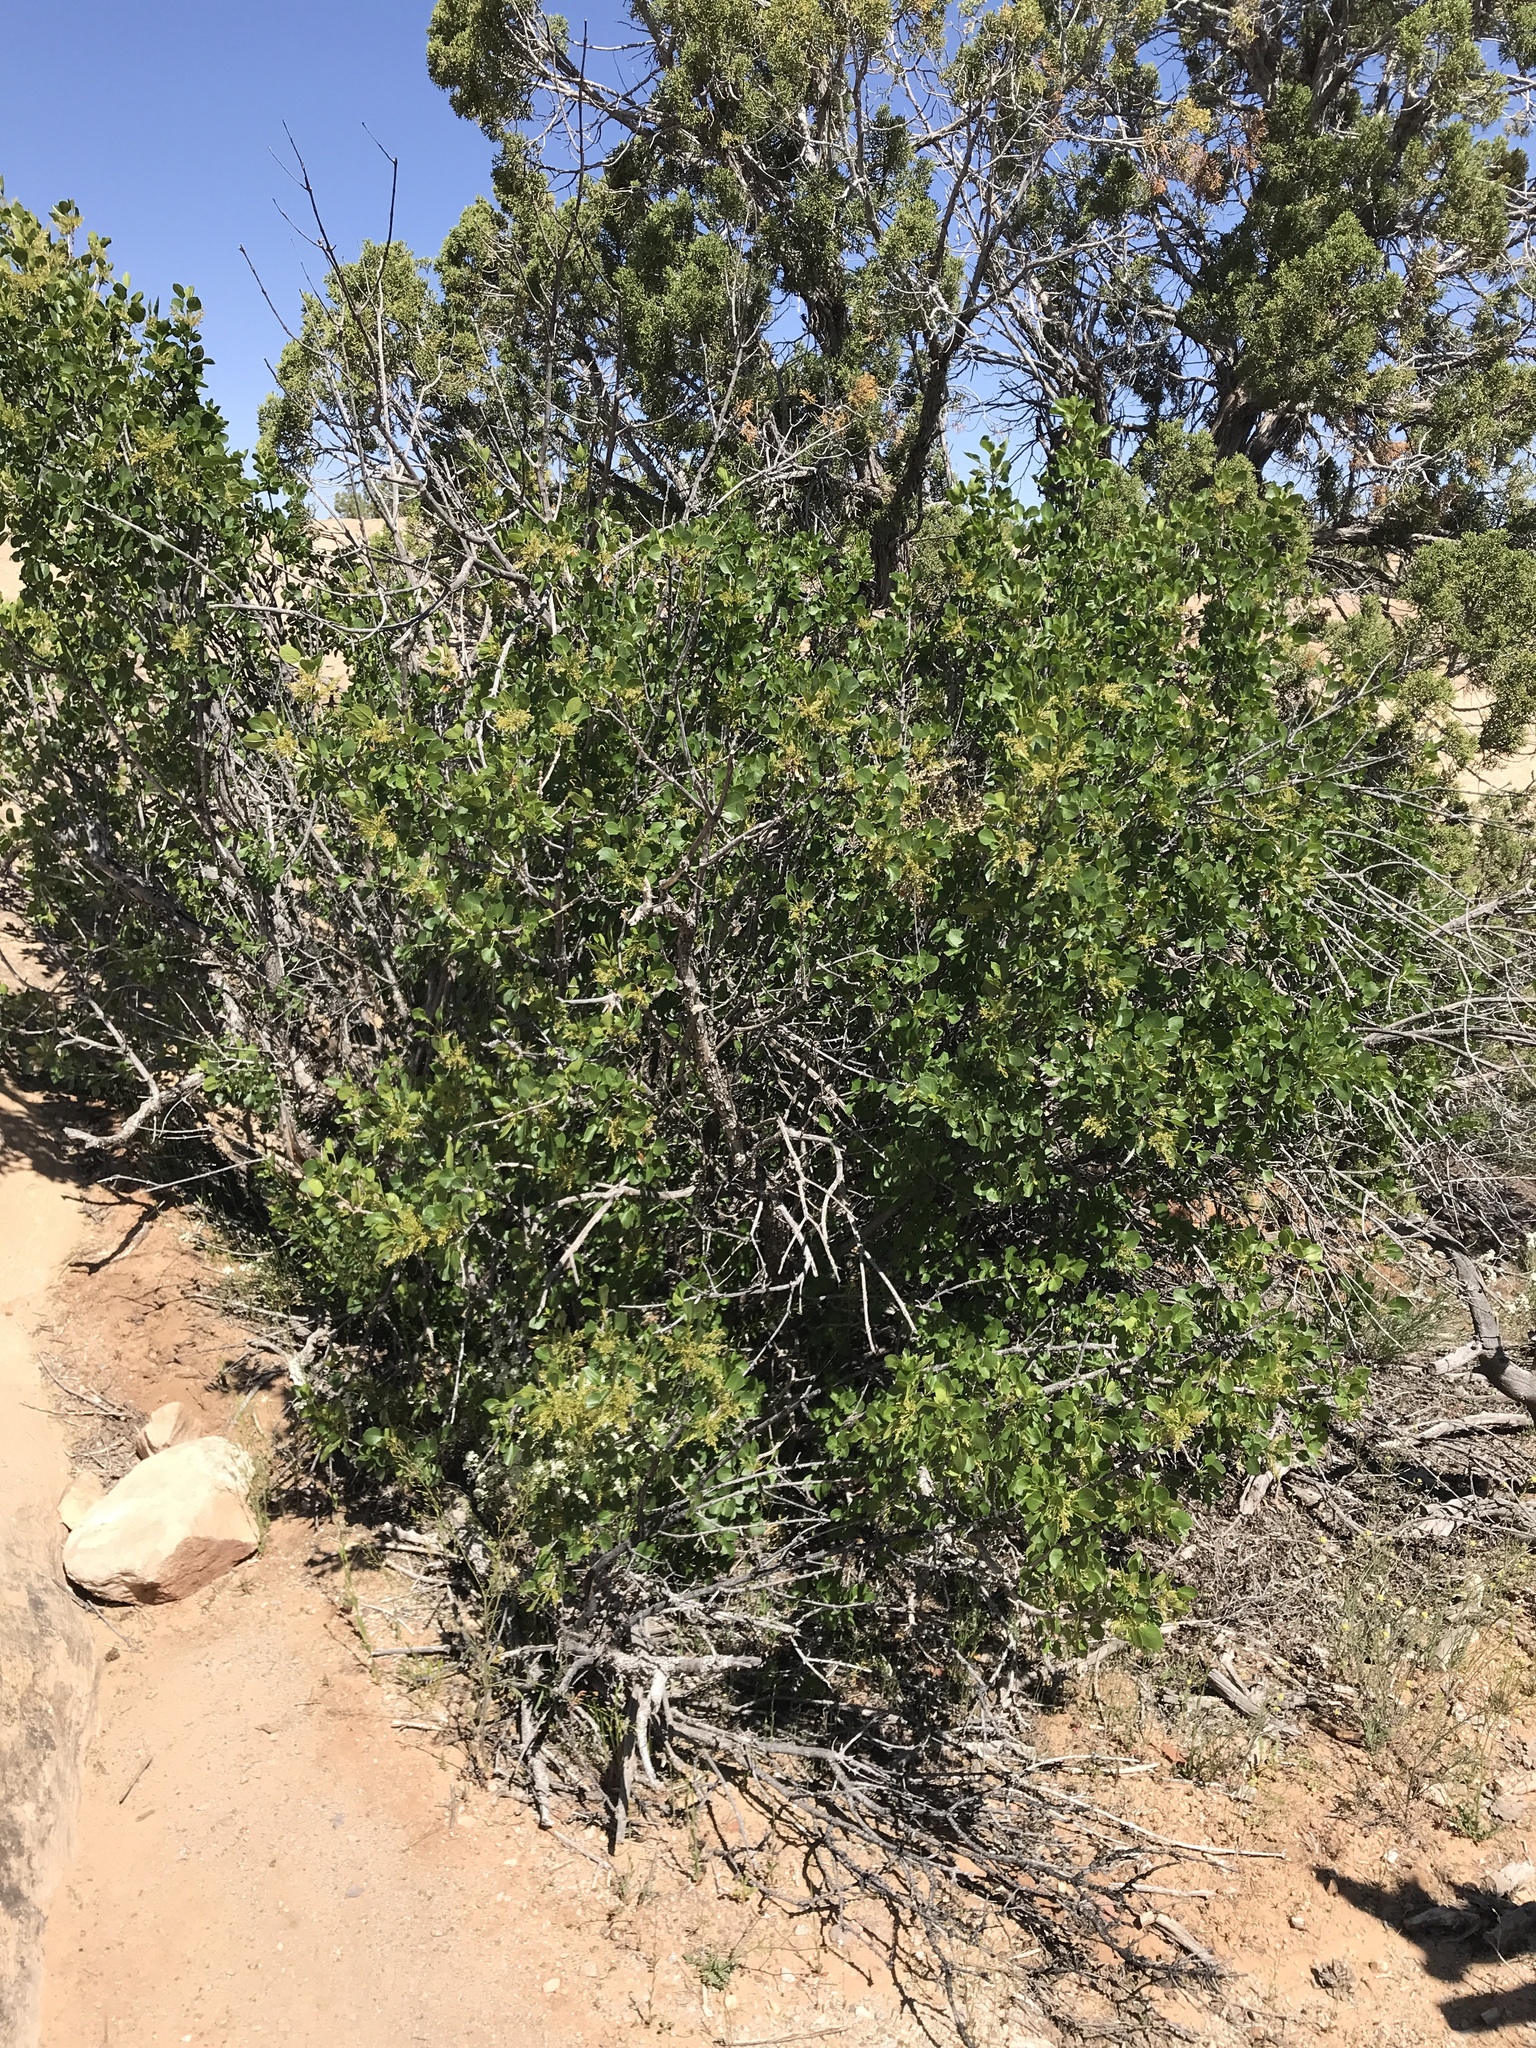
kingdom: Plantae
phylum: Tracheophyta
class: Magnoliopsida
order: Lamiales
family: Oleaceae
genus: Fraxinus
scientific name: Fraxinus anomala
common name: Utah ash
